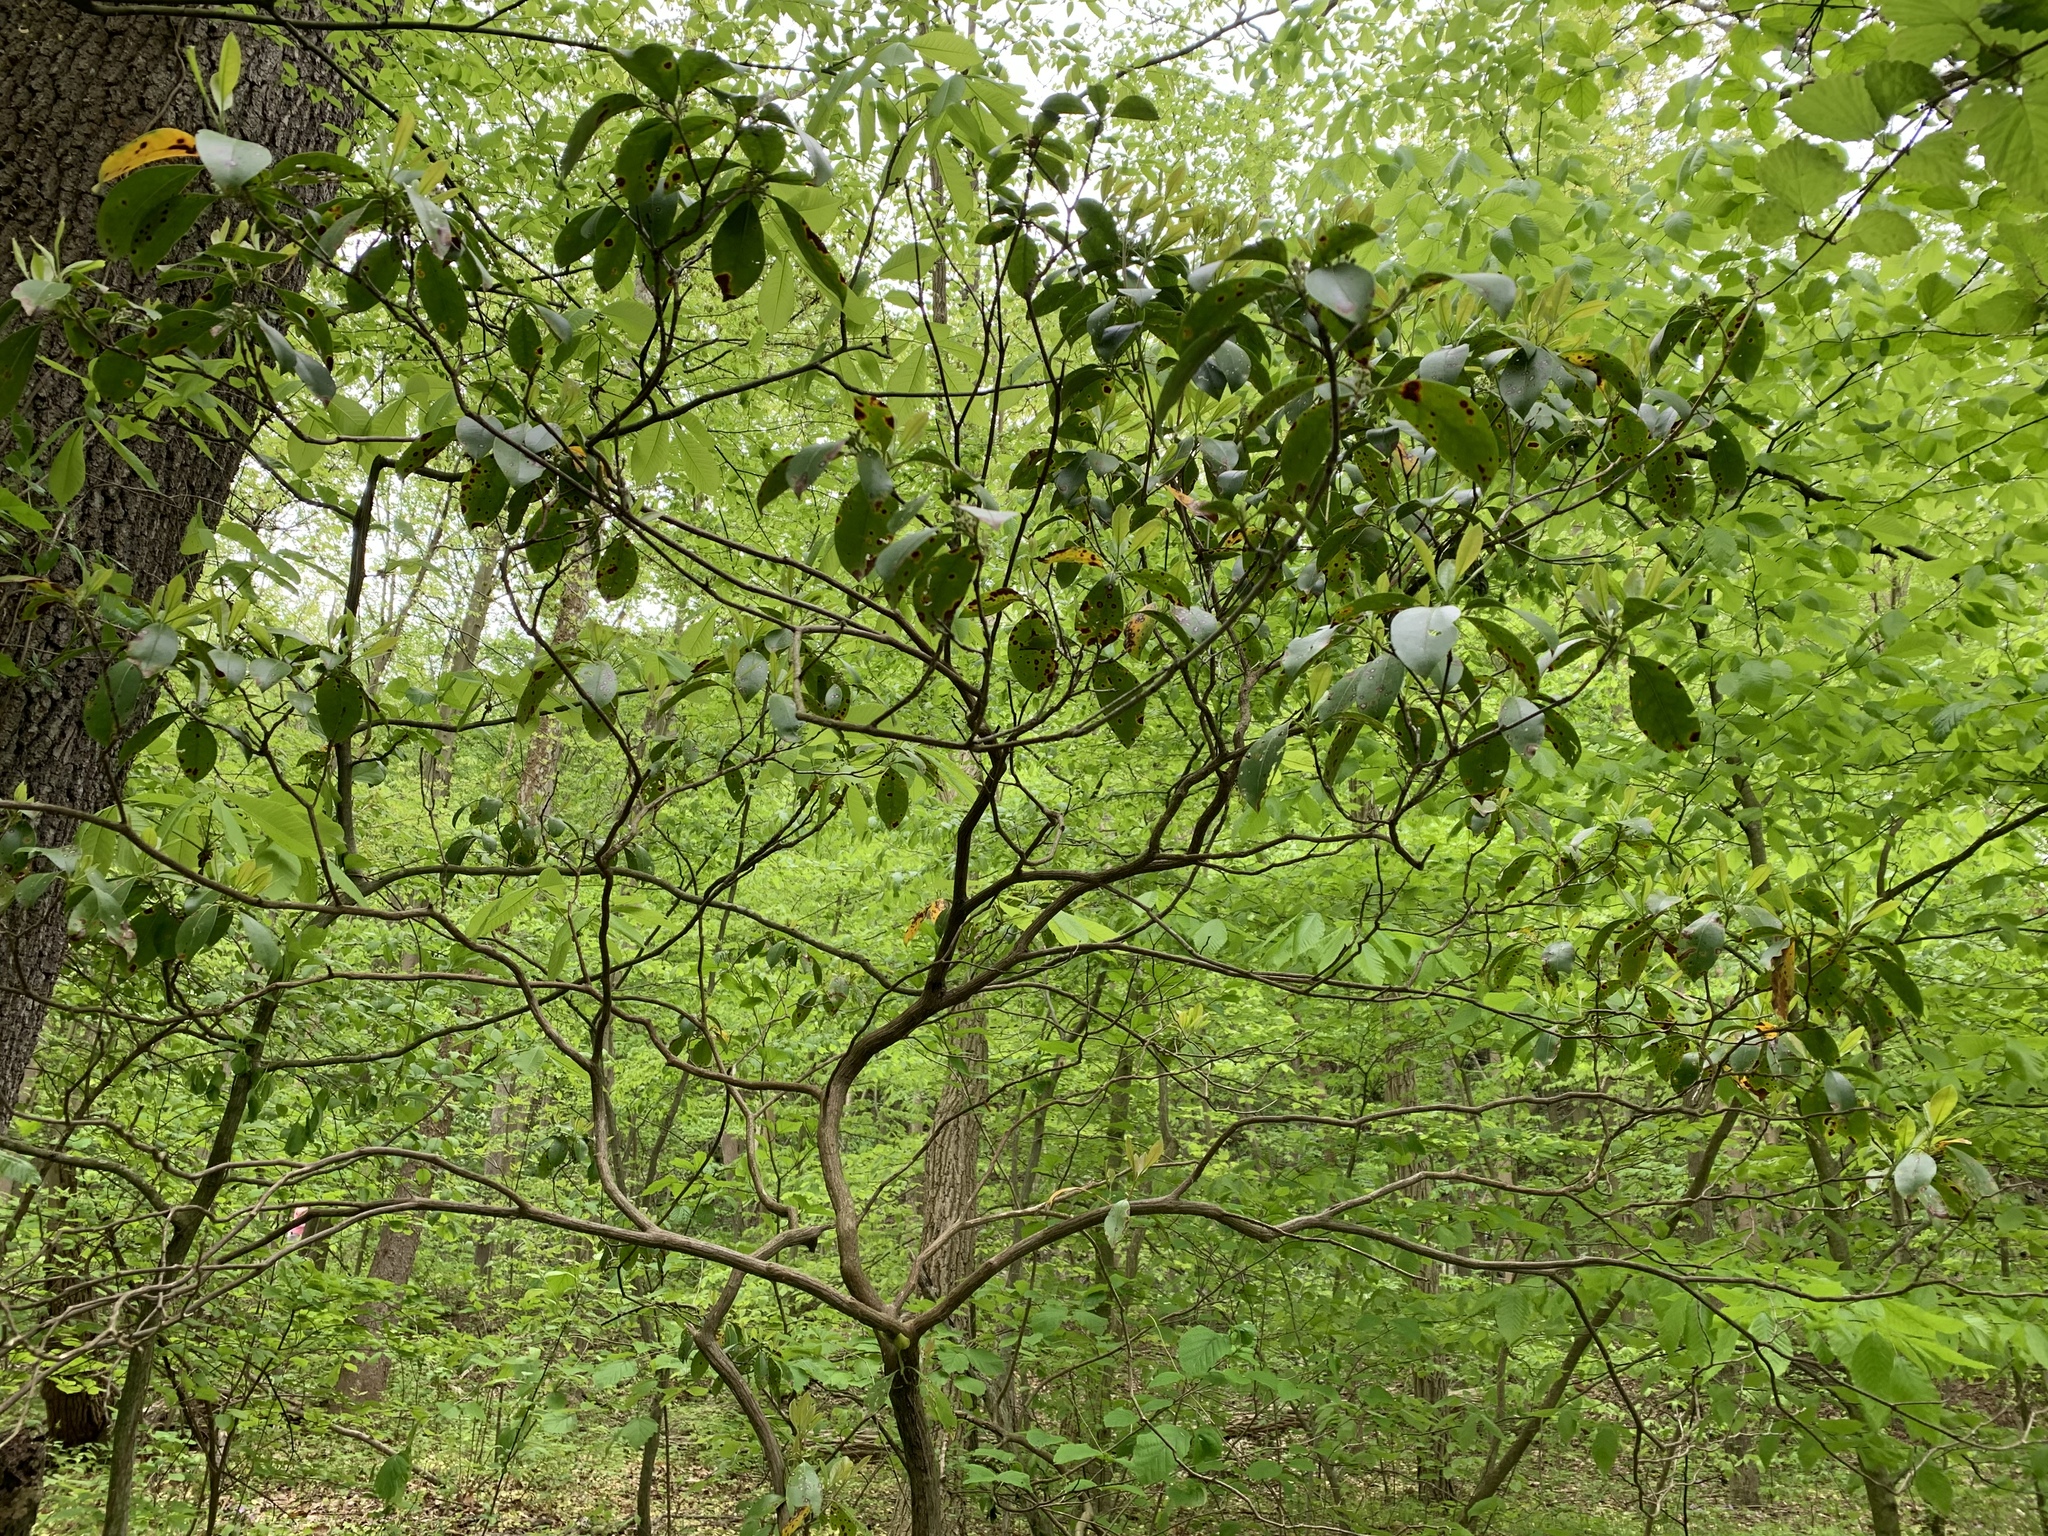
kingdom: Fungi
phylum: Ascomycota
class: Dothideomycetes
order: Mycosphaerellales
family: Mycosphaerellaceae
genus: Mycosphaerella
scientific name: Mycosphaerella colorata
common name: Mountain laurel leaf spot
